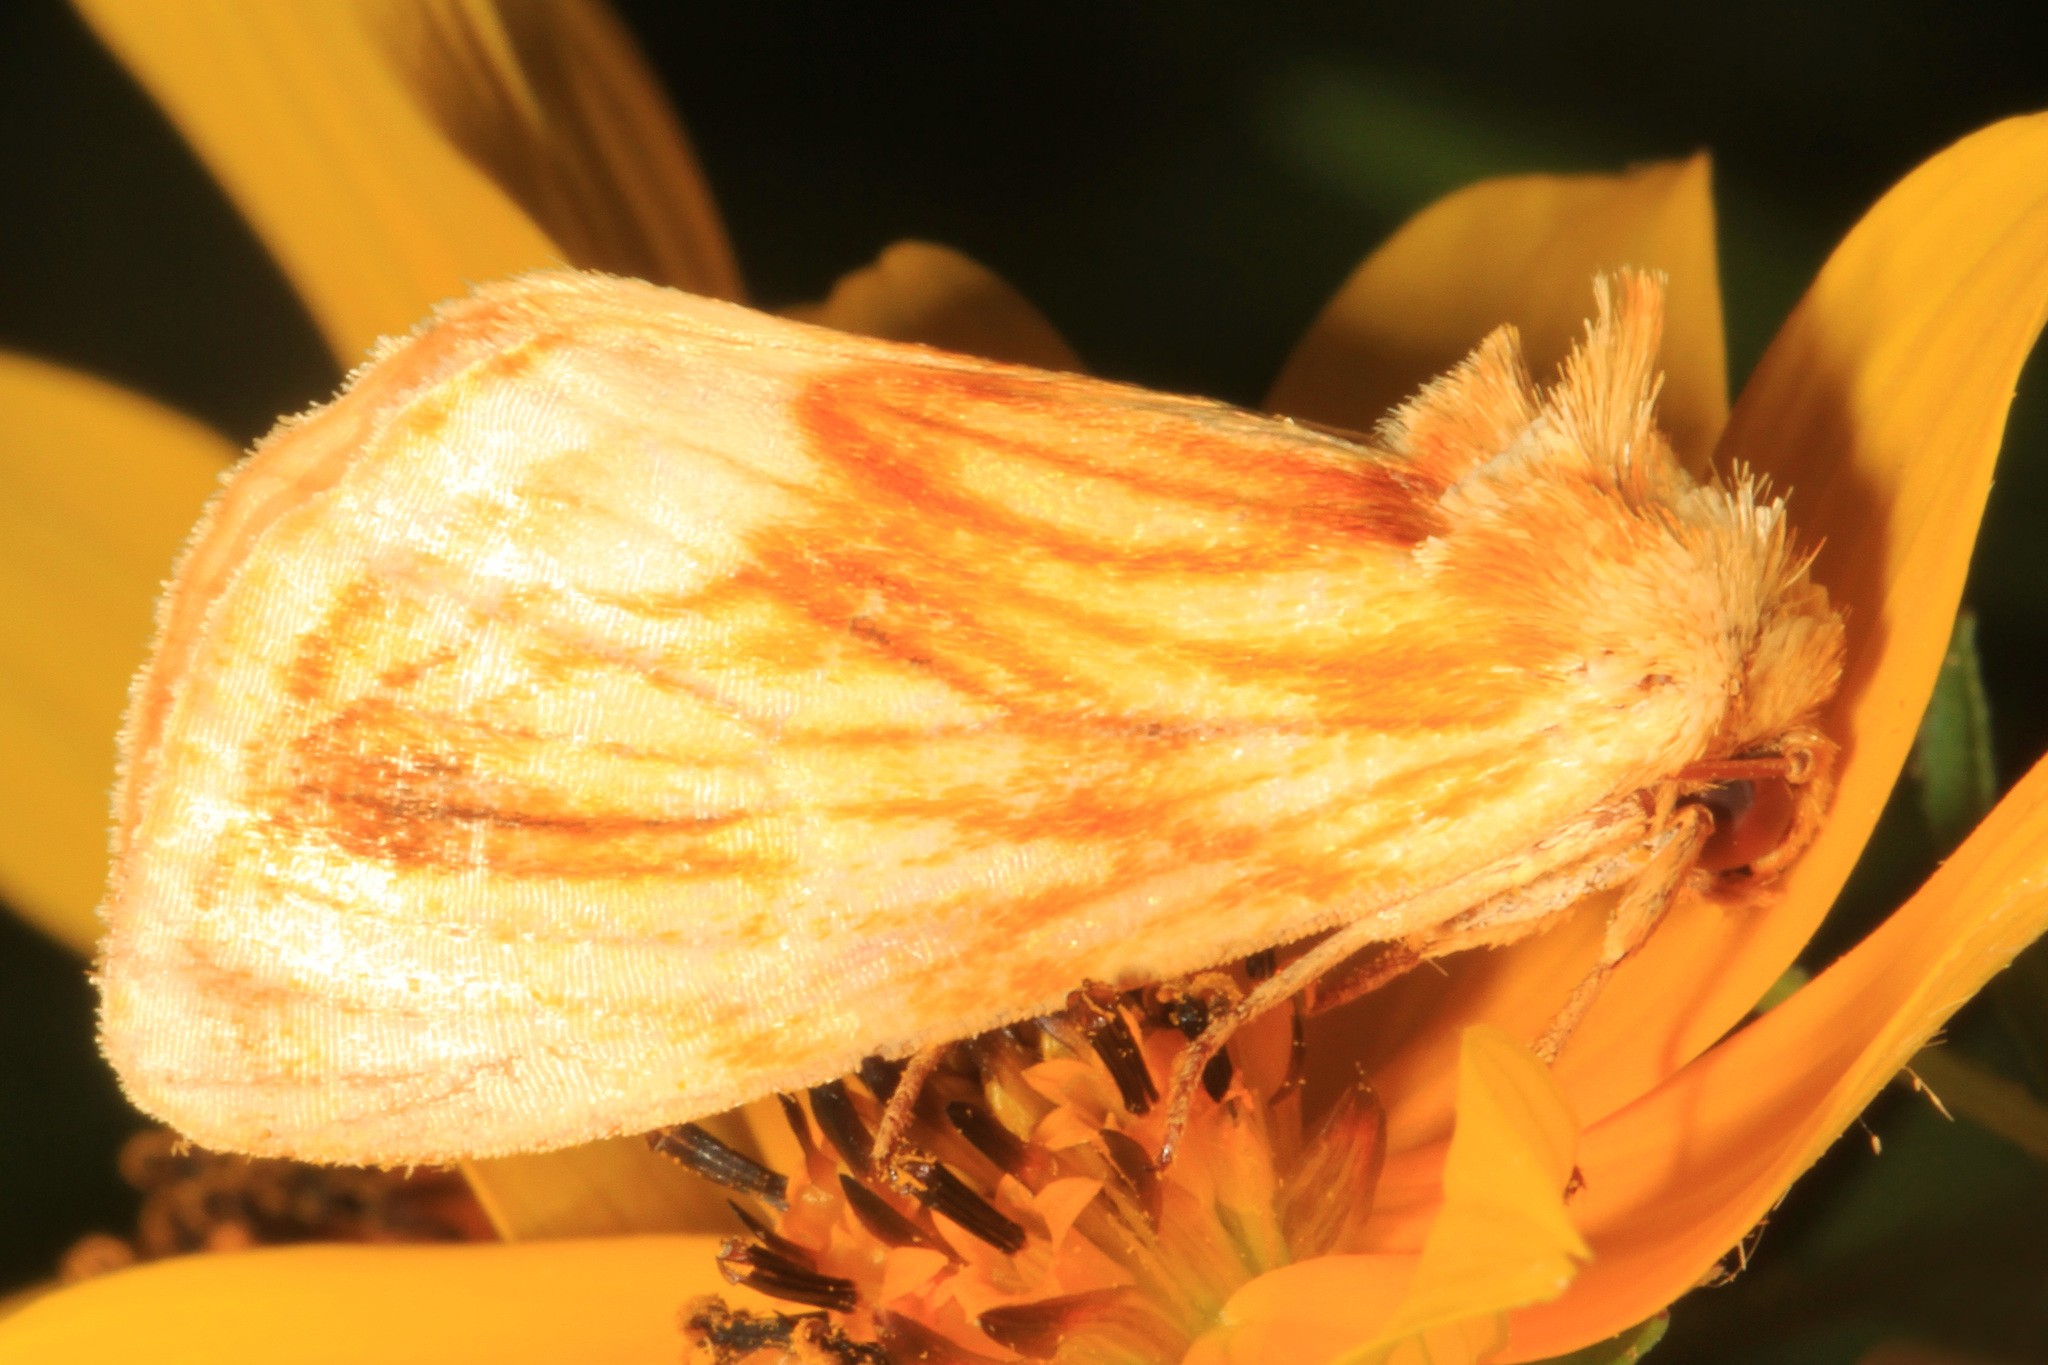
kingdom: Animalia
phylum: Arthropoda
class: Insecta
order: Lepidoptera
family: Noctuidae
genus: Cirrhophanus
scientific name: Cirrhophanus triangulifer
